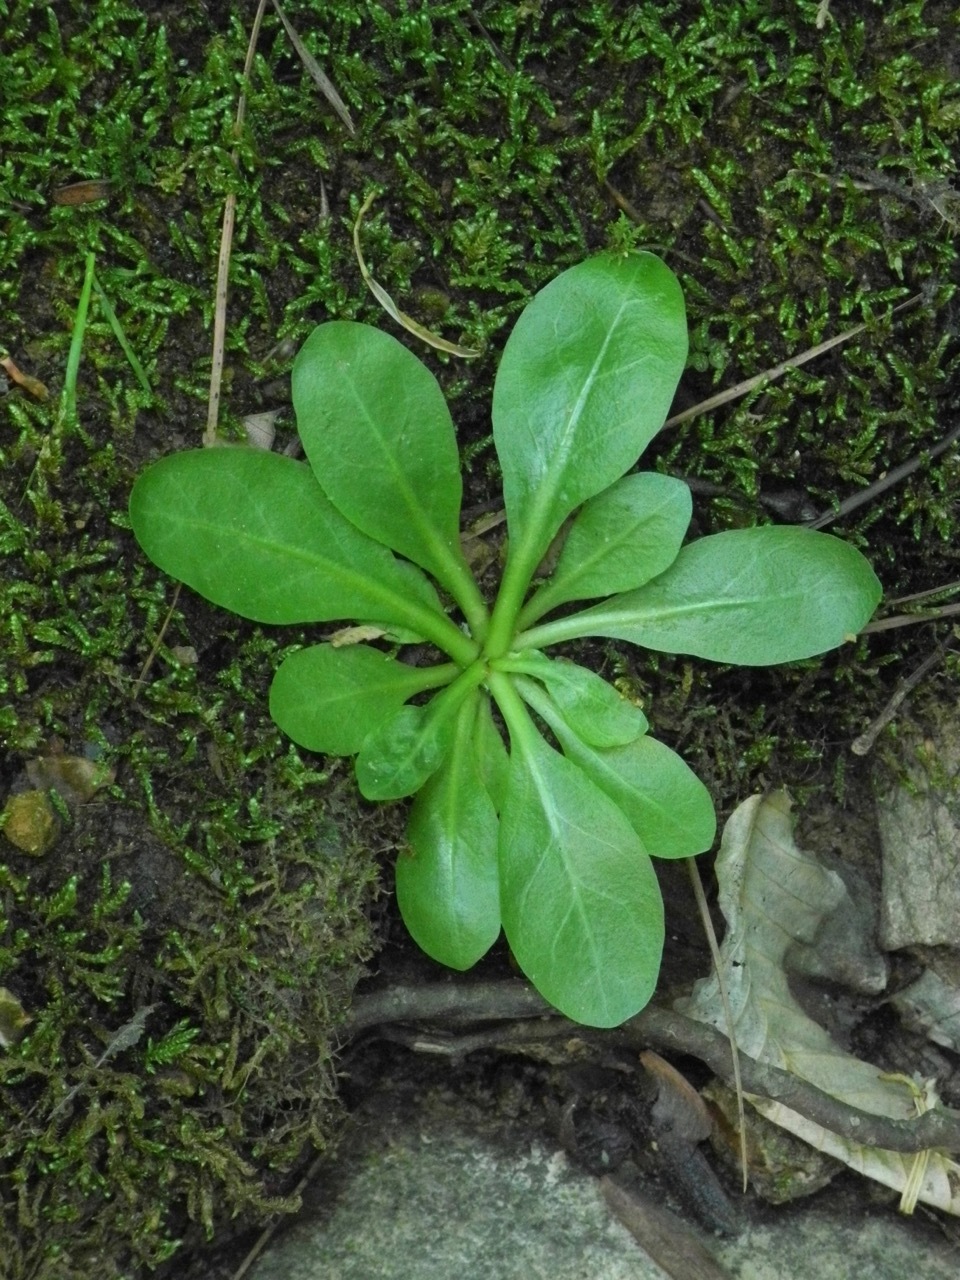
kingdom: Plantae
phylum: Tracheophyta
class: Magnoliopsida
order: Ericales
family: Primulaceae
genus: Samolus
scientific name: Samolus parviflorus
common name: False water pimpernel
